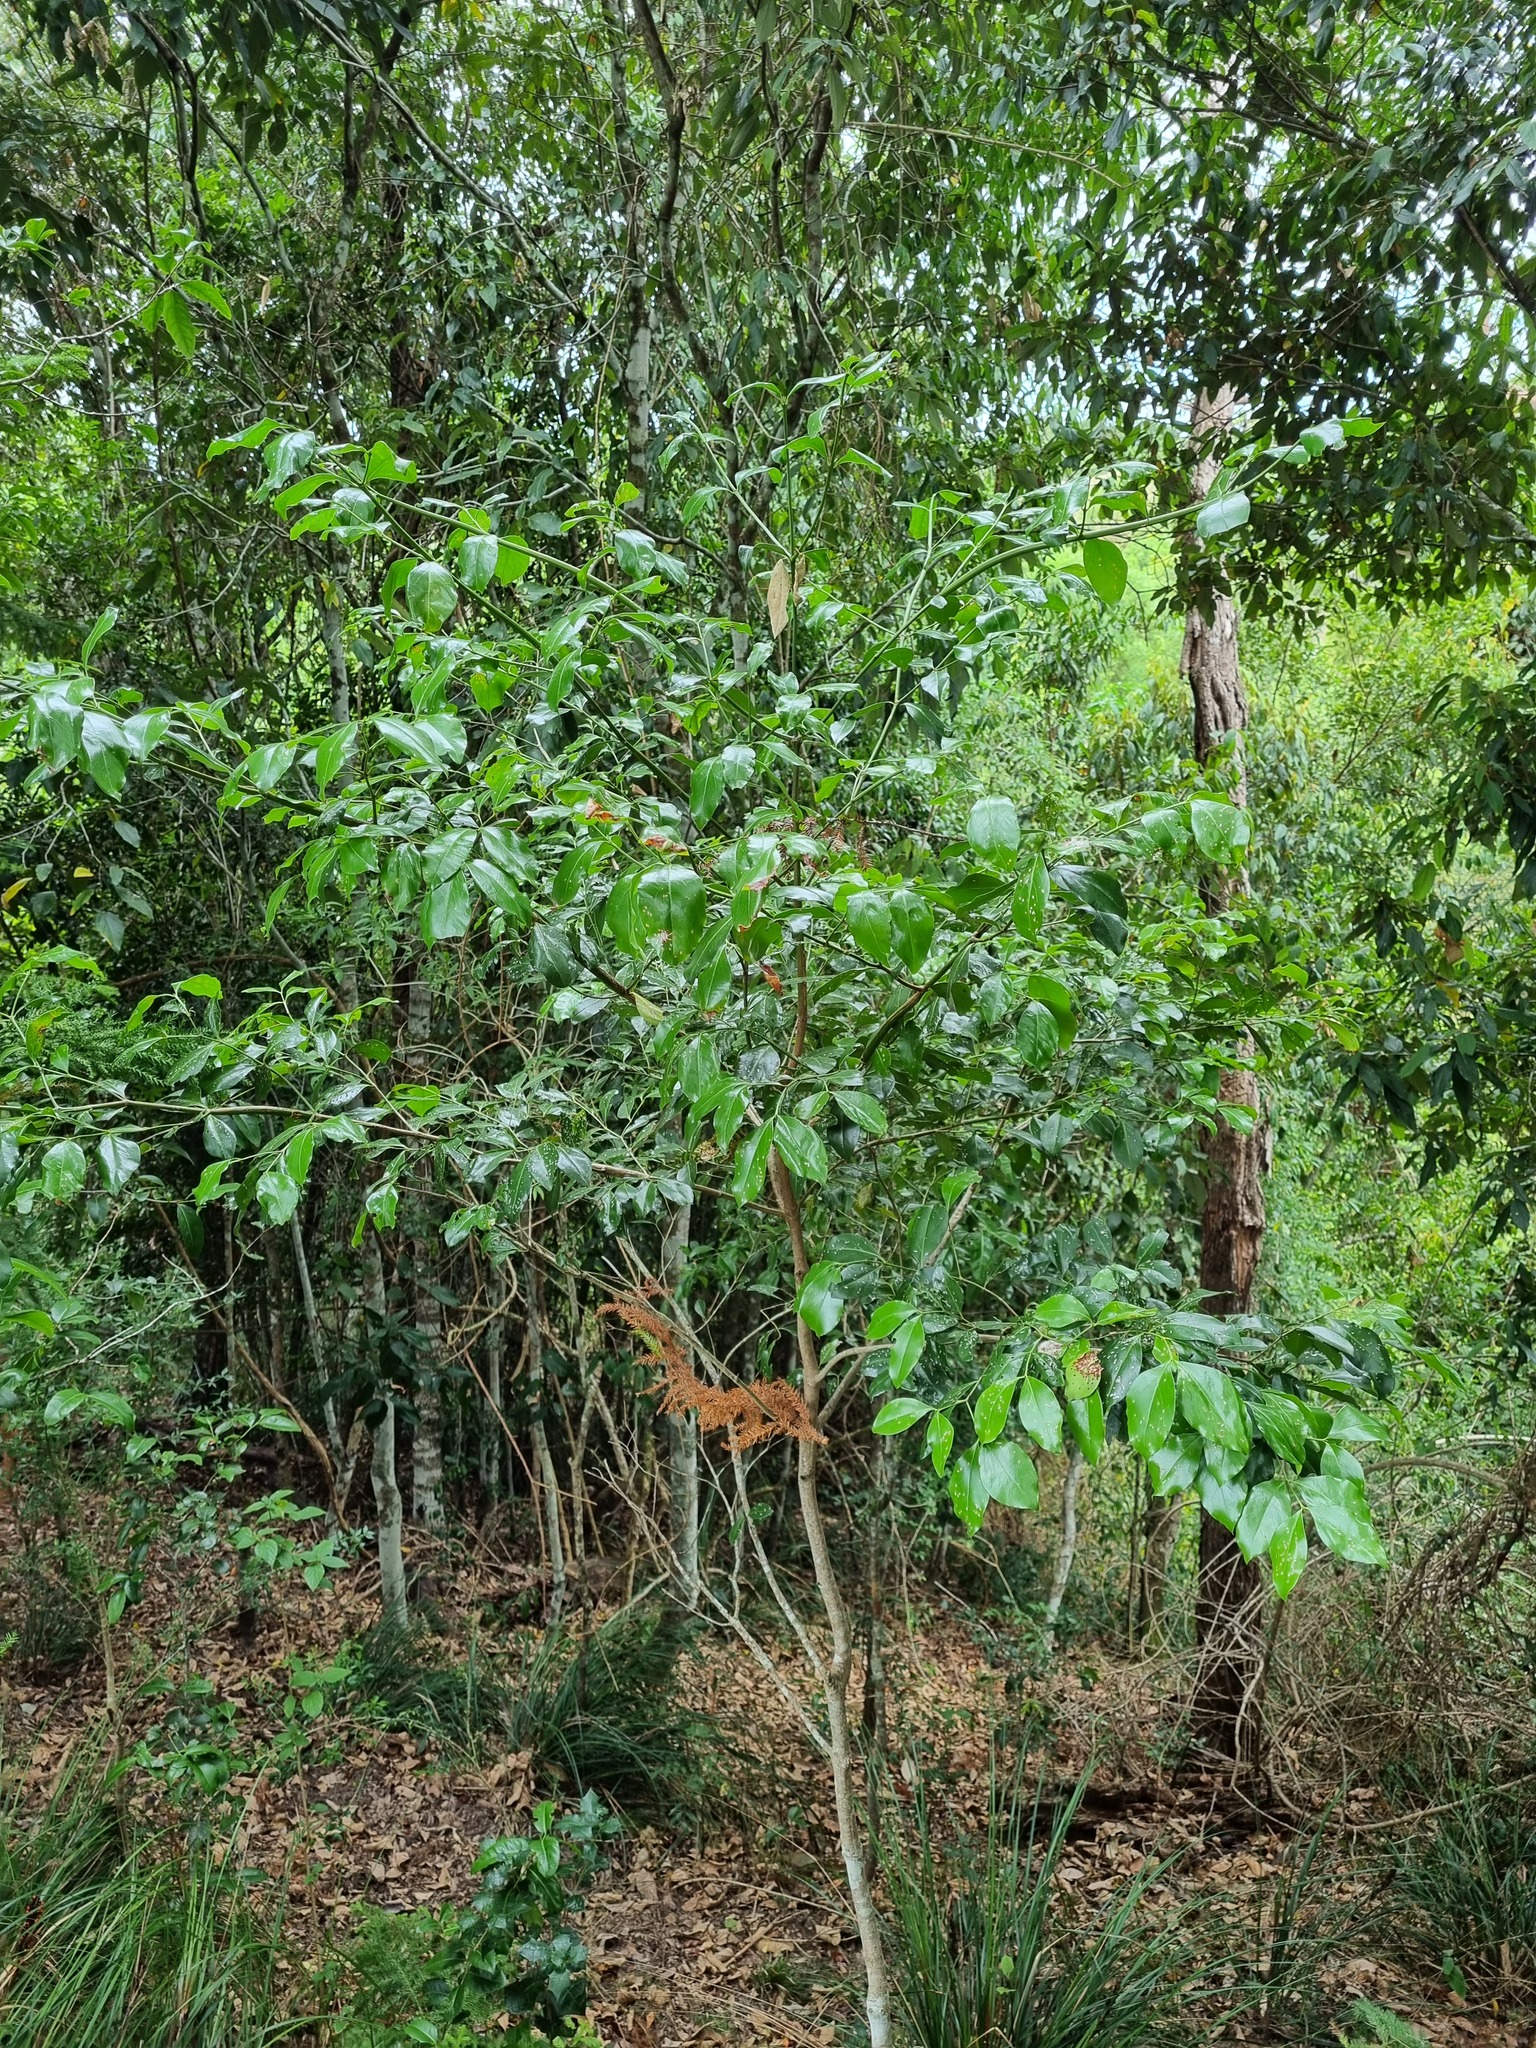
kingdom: Plantae
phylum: Tracheophyta
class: Magnoliopsida
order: Gentianales
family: Loganiaceae
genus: Strychnos
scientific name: Strychnos psilosperma
